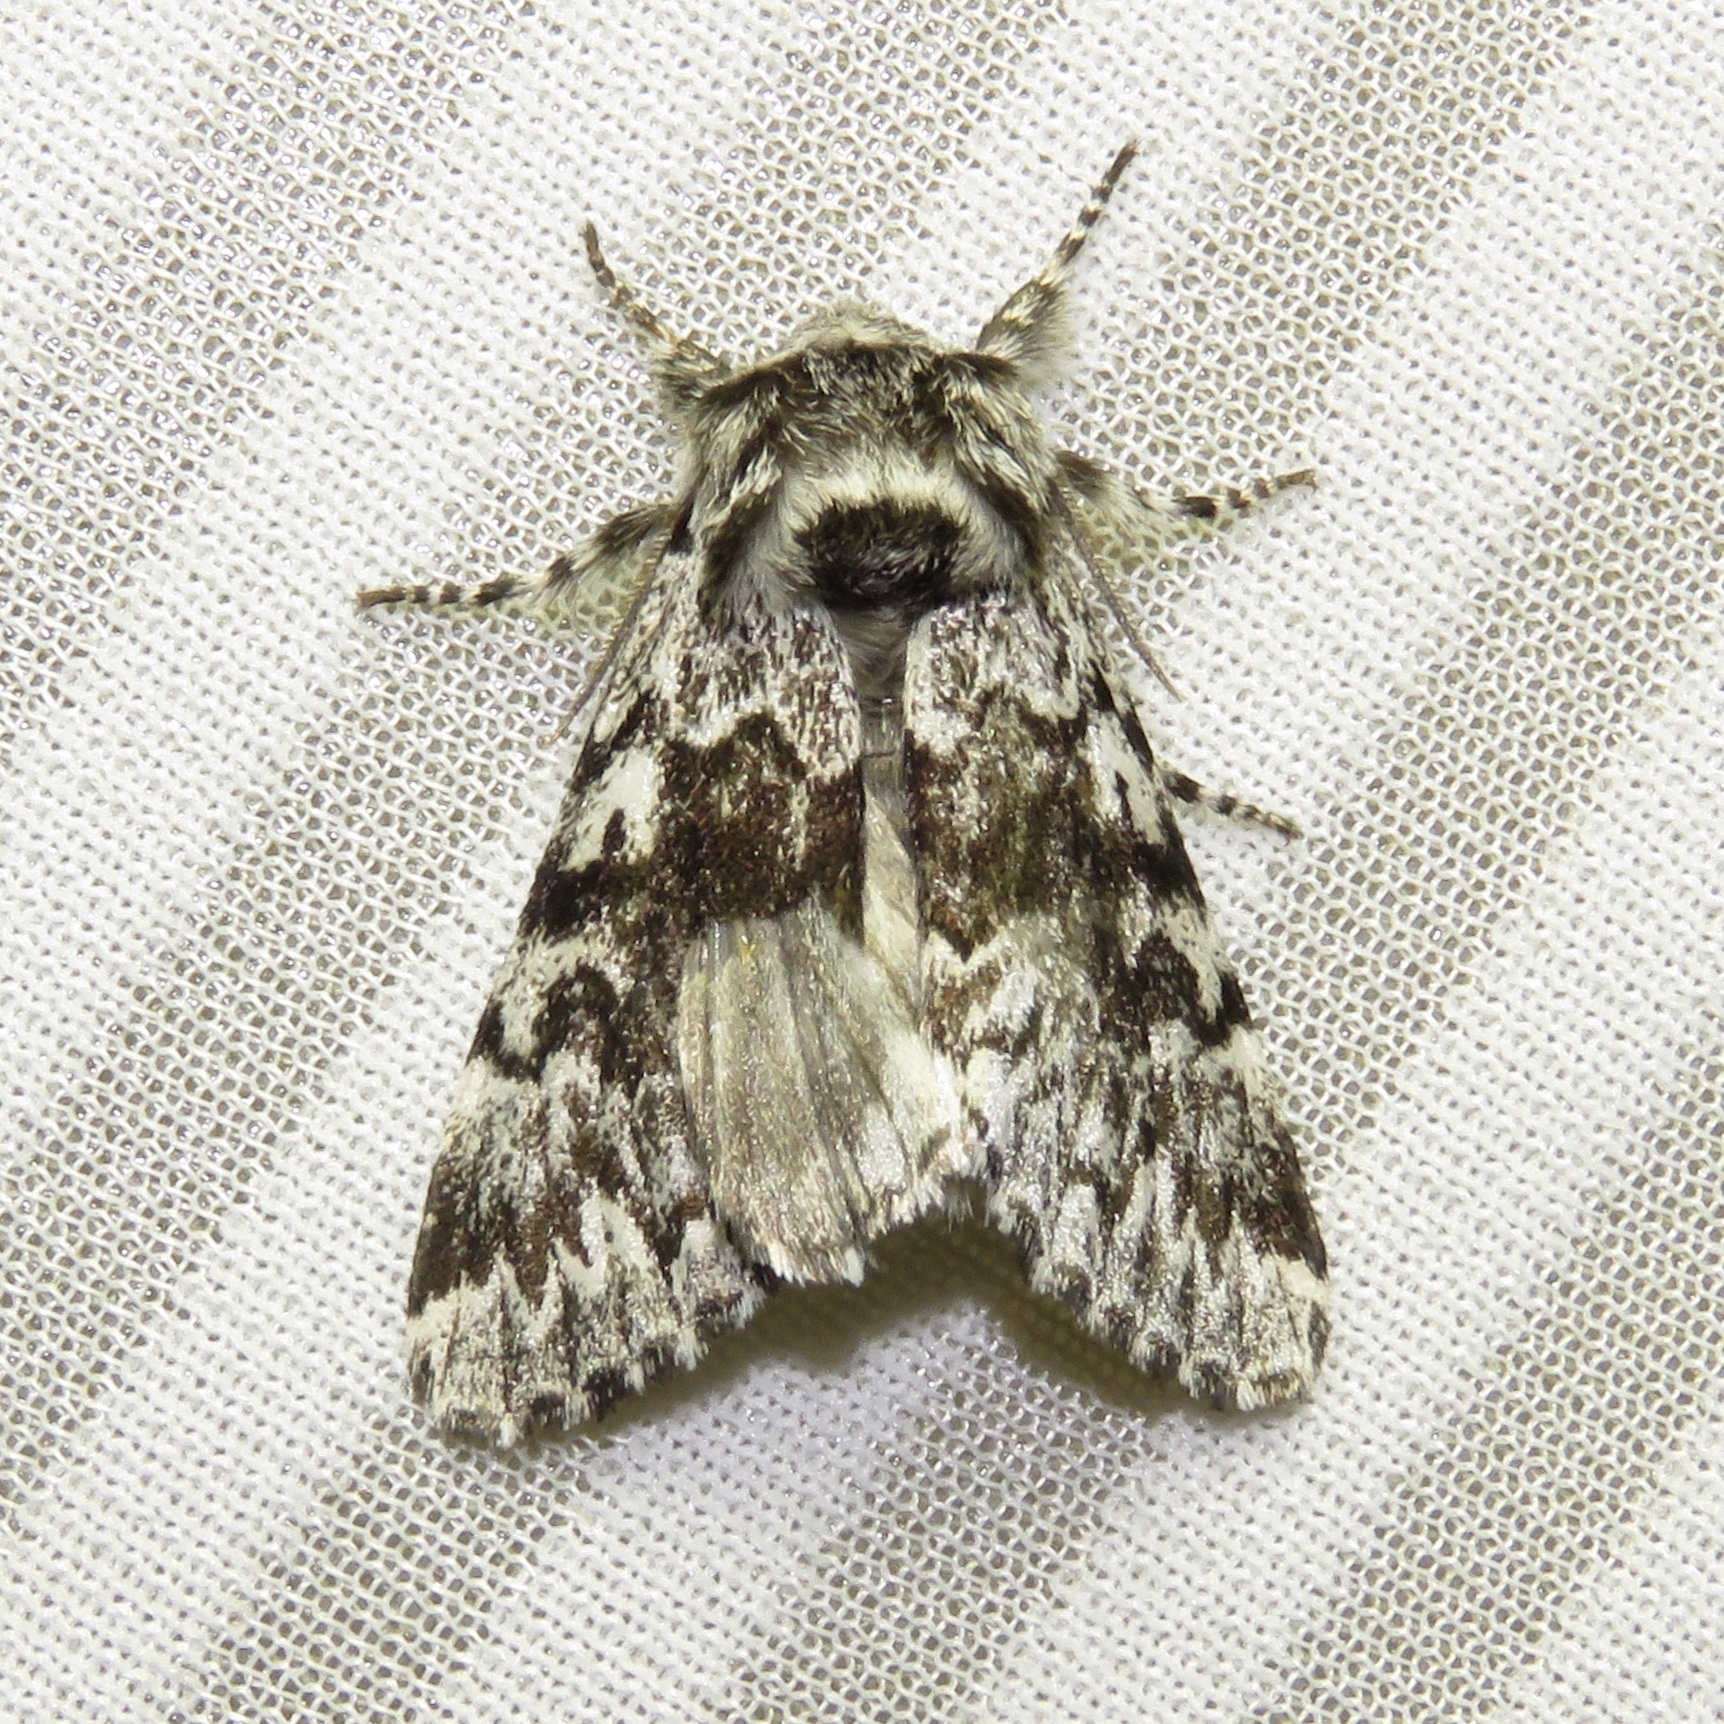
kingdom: Animalia
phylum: Arthropoda
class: Insecta
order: Lepidoptera
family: Noctuidae
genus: Panthea
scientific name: Panthea acronyctoides
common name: Black zigzag moth
